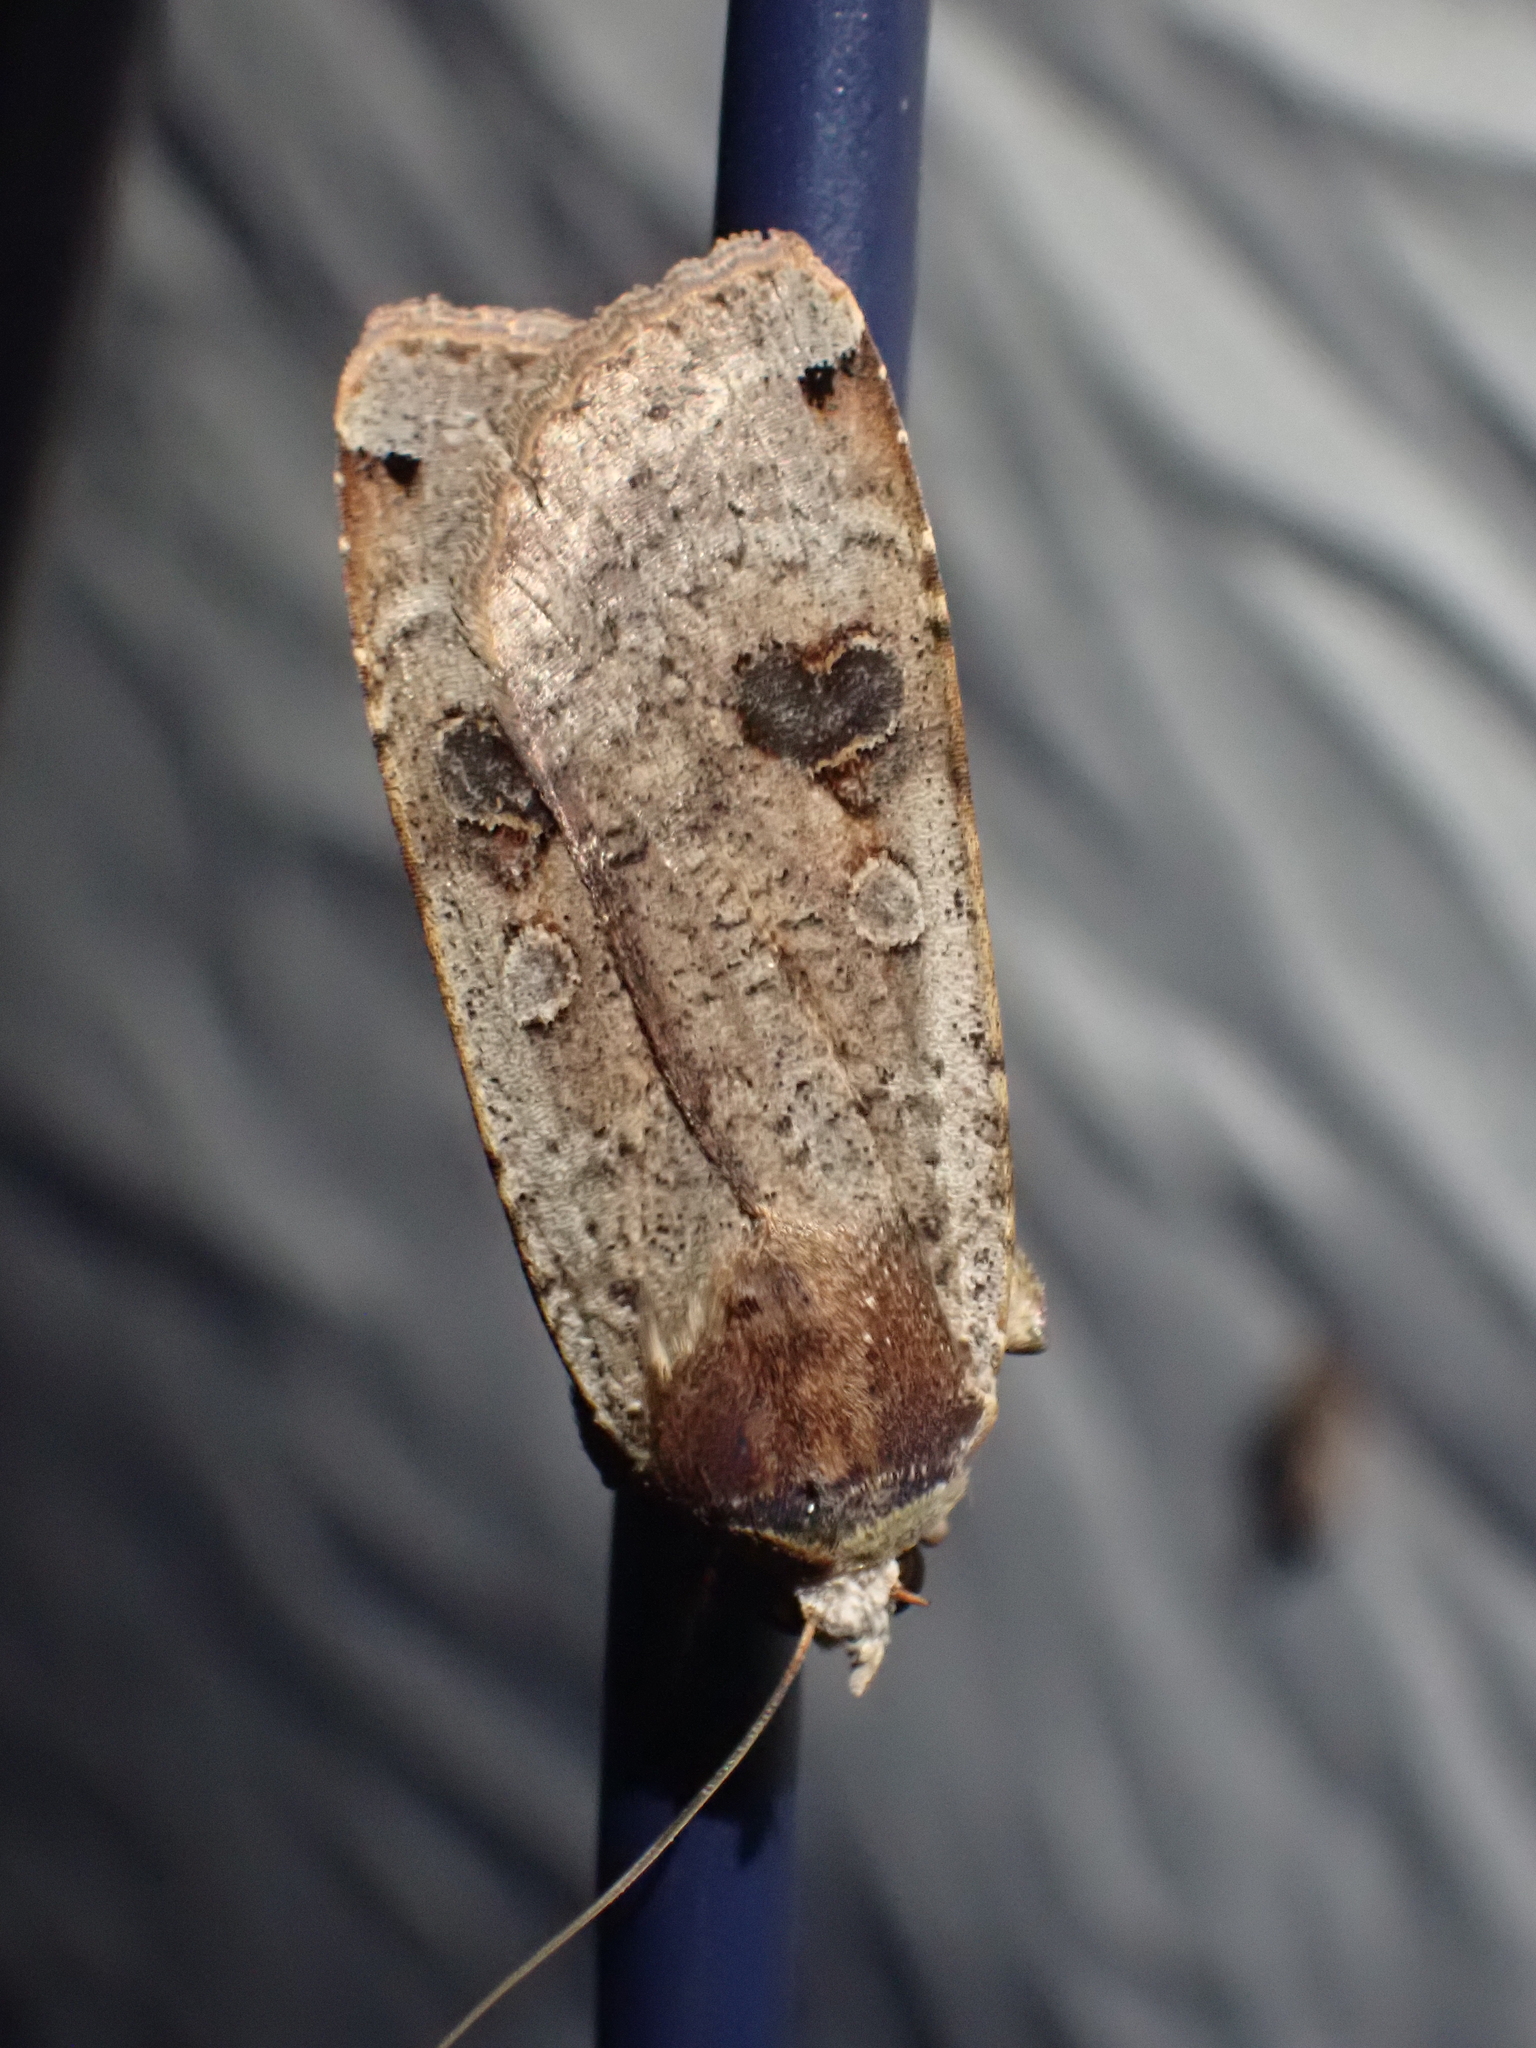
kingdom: Animalia
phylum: Arthropoda
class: Insecta
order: Lepidoptera
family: Noctuidae
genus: Noctua
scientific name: Noctua pronuba
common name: Large yellow underwing
